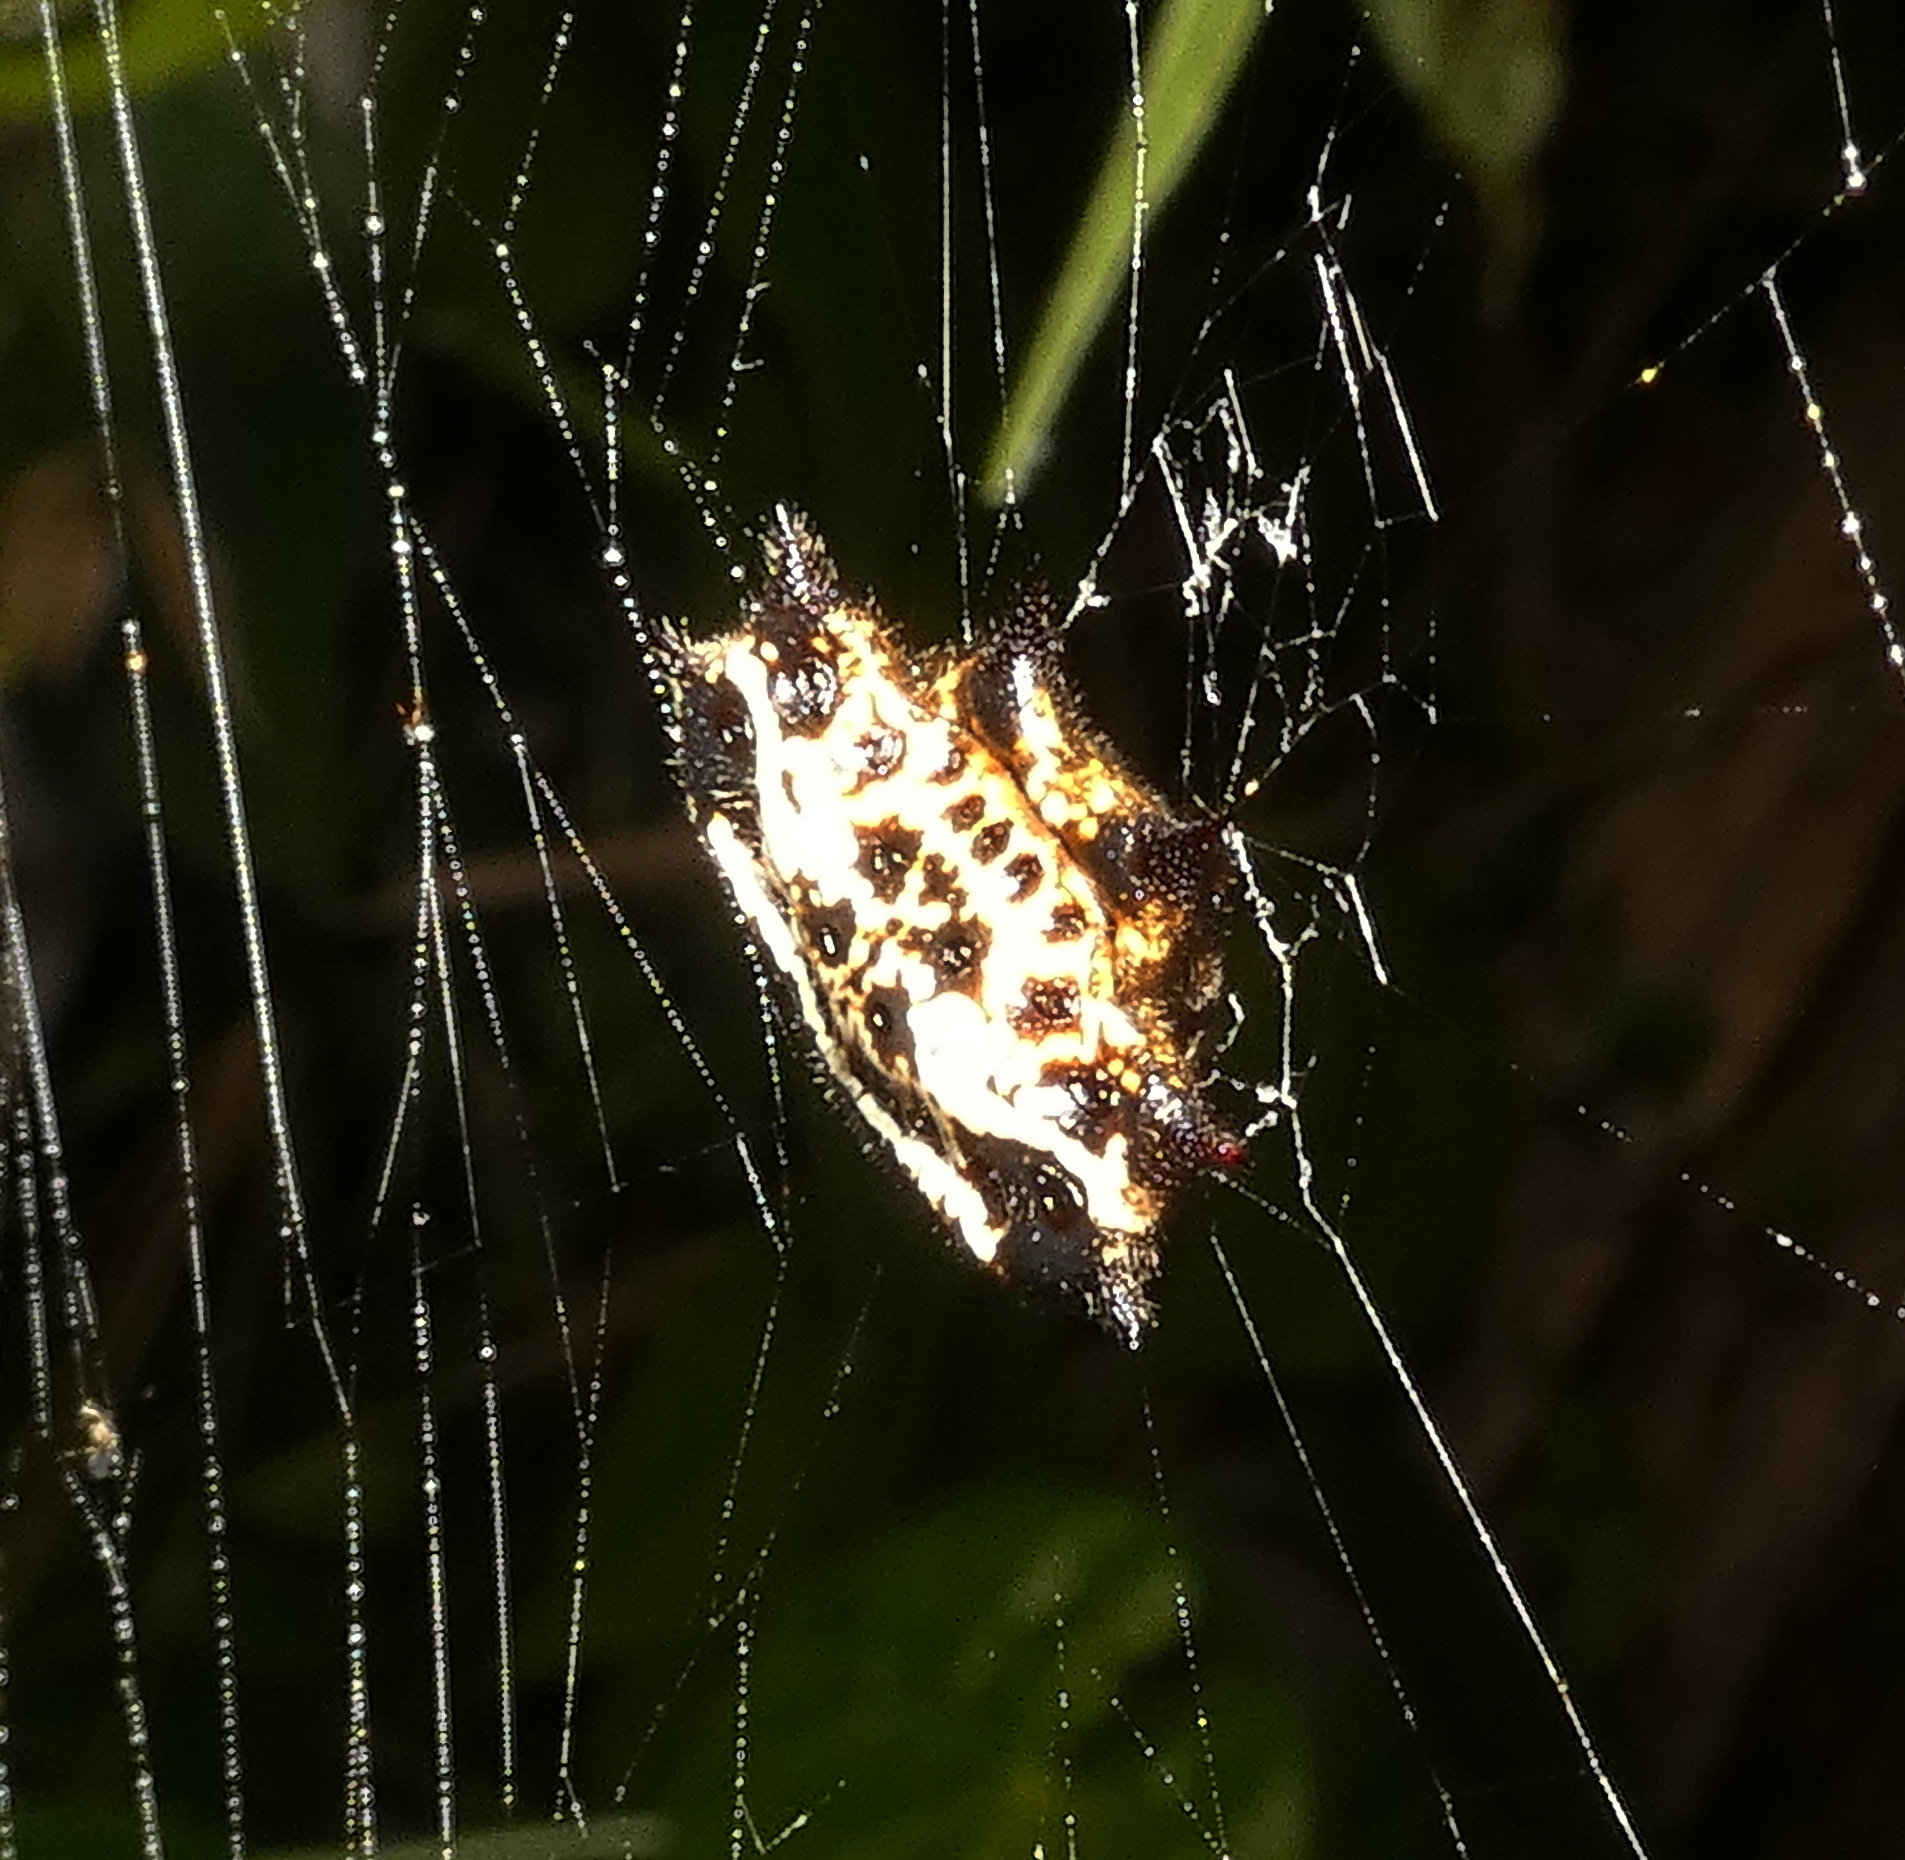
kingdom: Animalia
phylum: Arthropoda
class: Arachnida
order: Araneae
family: Araneidae
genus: Gasteracantha
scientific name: Gasteracantha cancriformis
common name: Orb weavers
